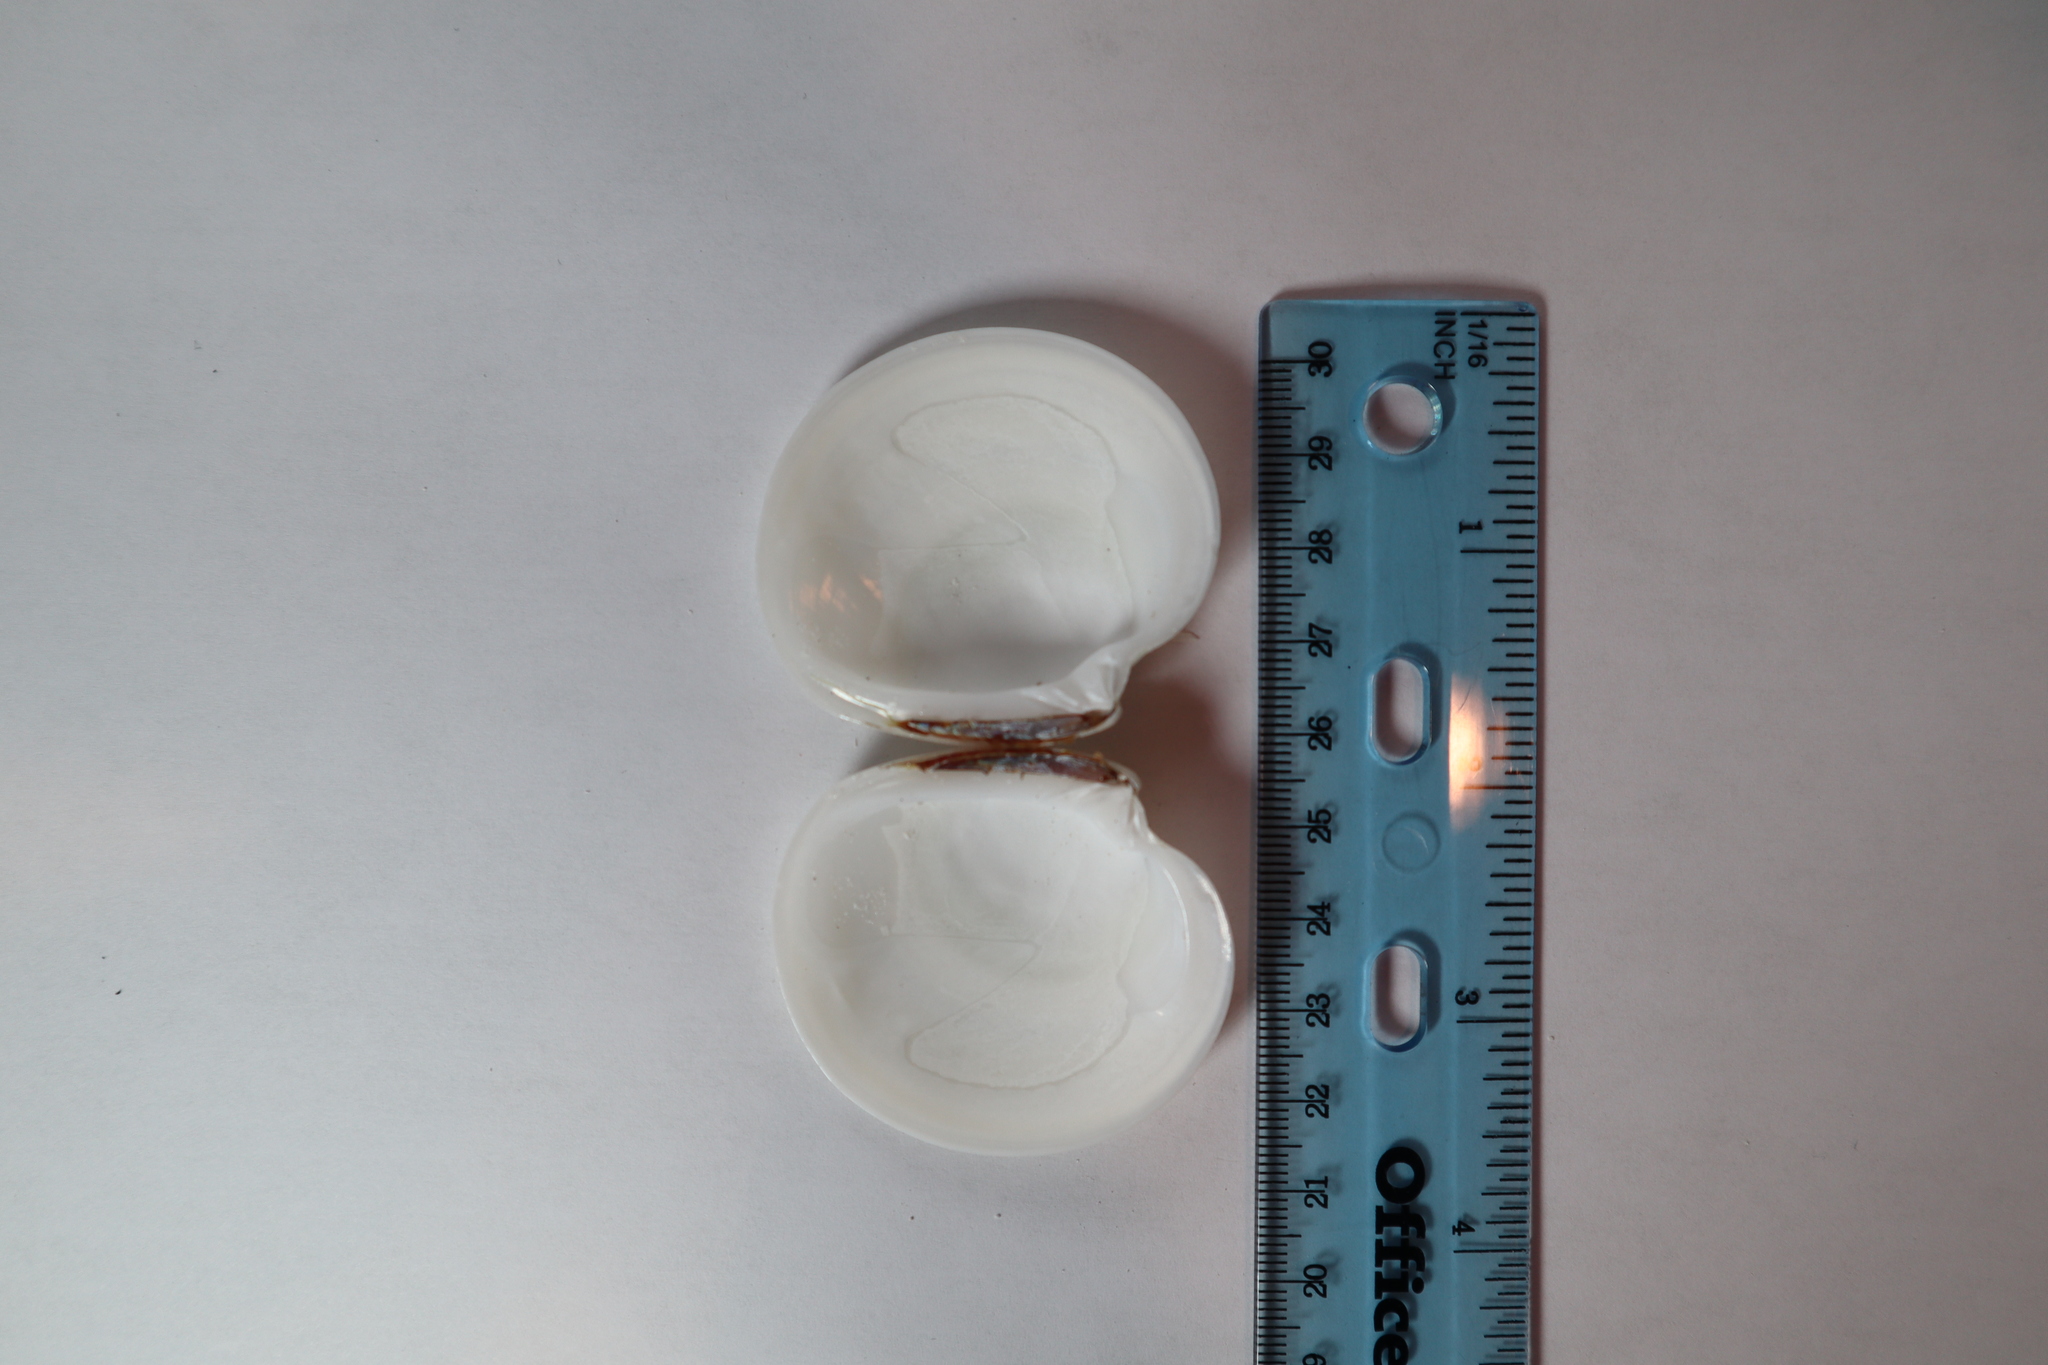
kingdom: Animalia
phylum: Mollusca
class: Bivalvia
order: Venerida
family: Veneridae
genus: Dosinia
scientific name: Dosinia discus
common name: Disk dosinia
